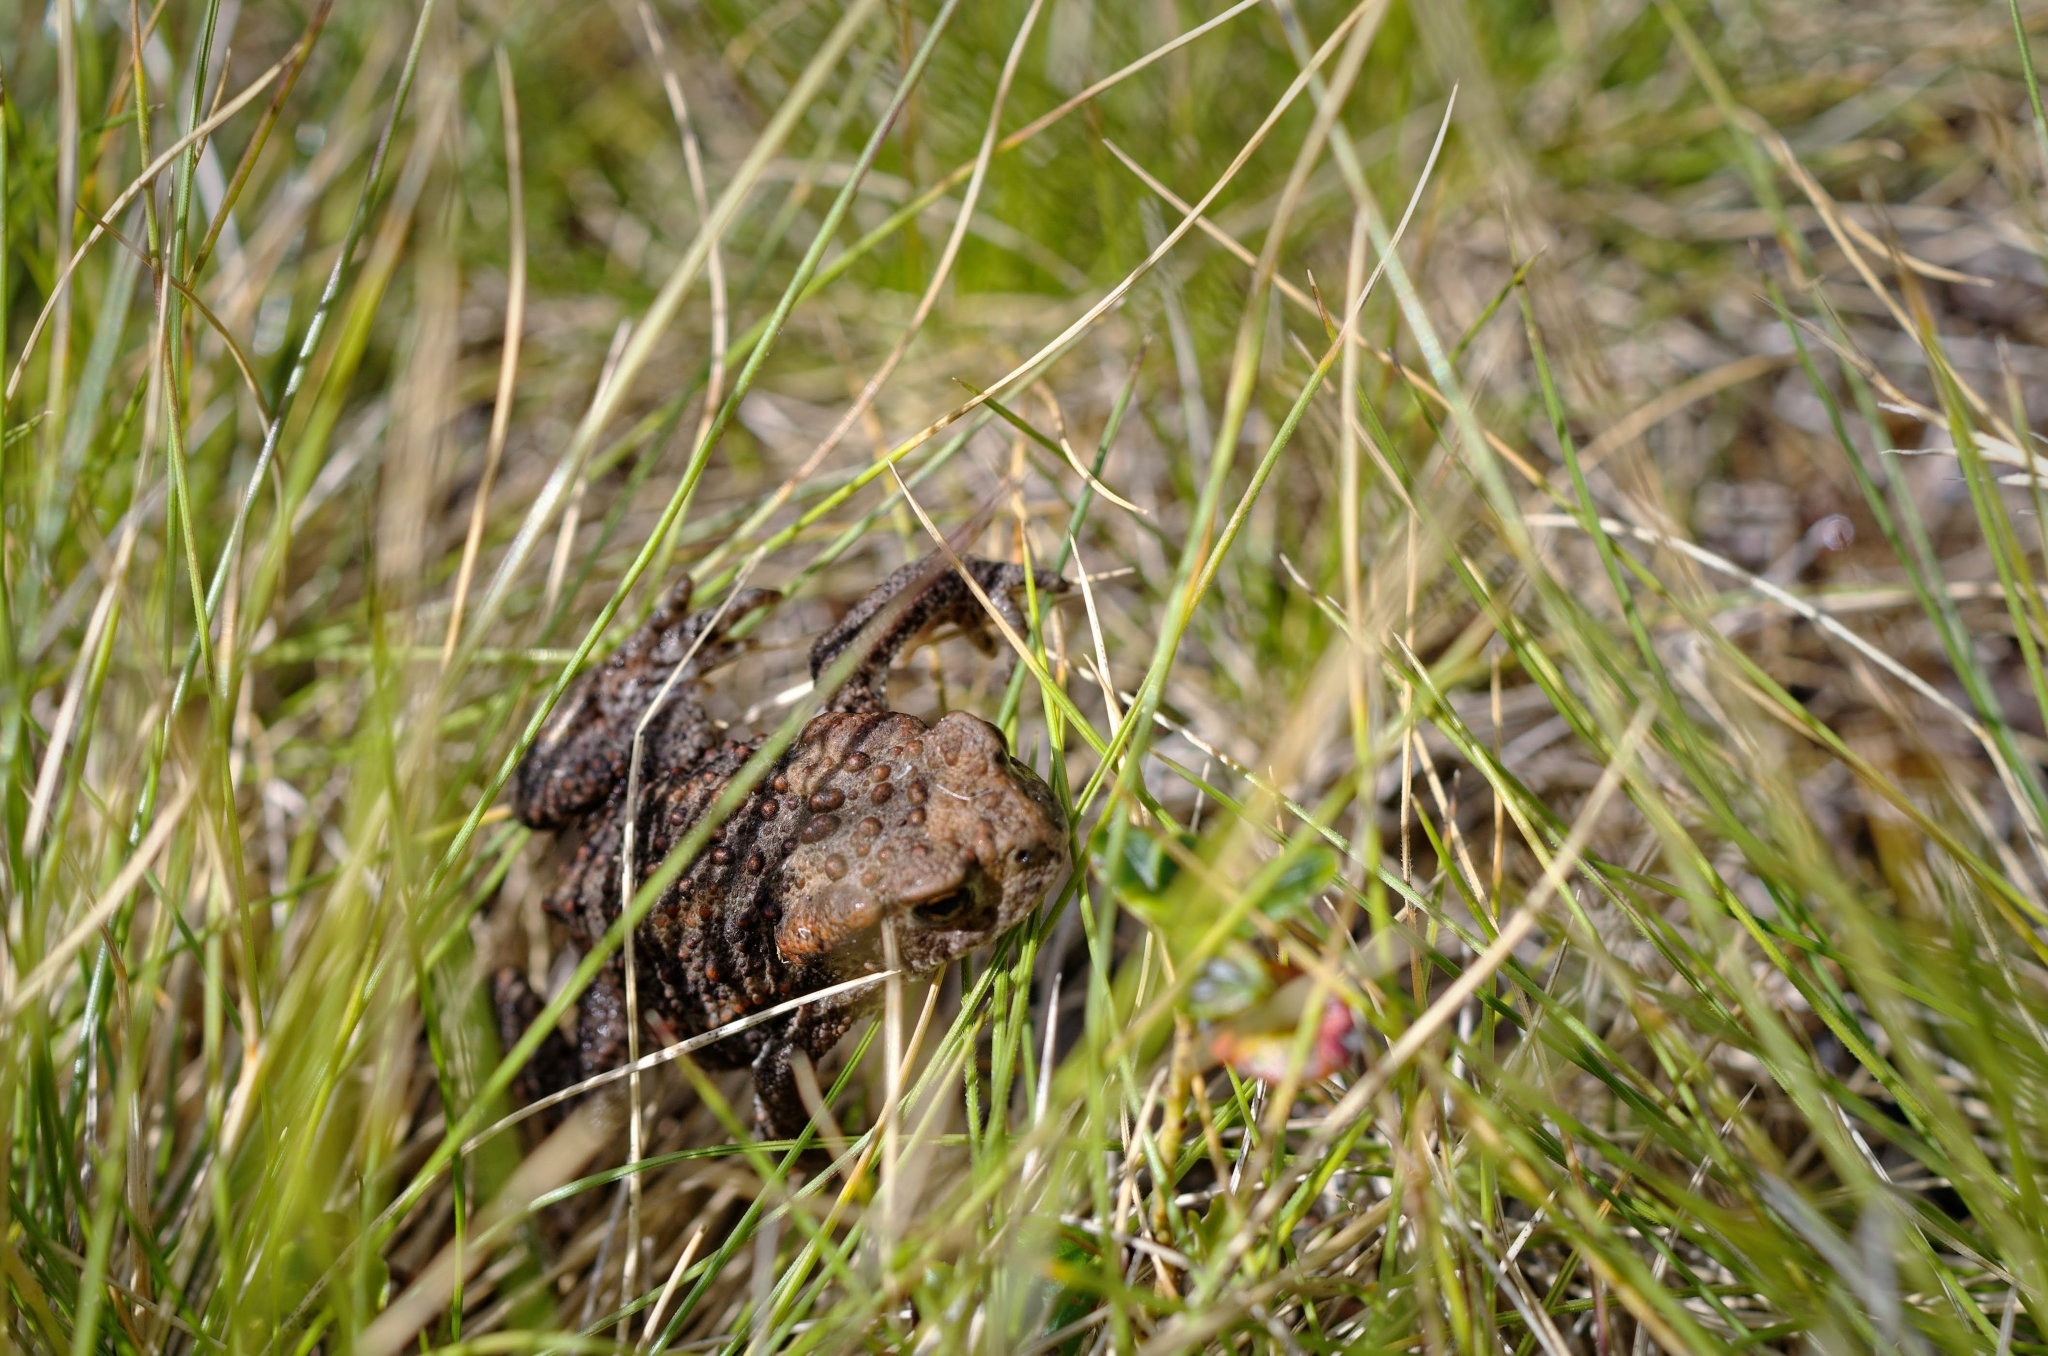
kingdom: Animalia
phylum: Chordata
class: Amphibia
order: Anura
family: Bufonidae
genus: Bufo
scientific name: Bufo bufo
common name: Common toad
